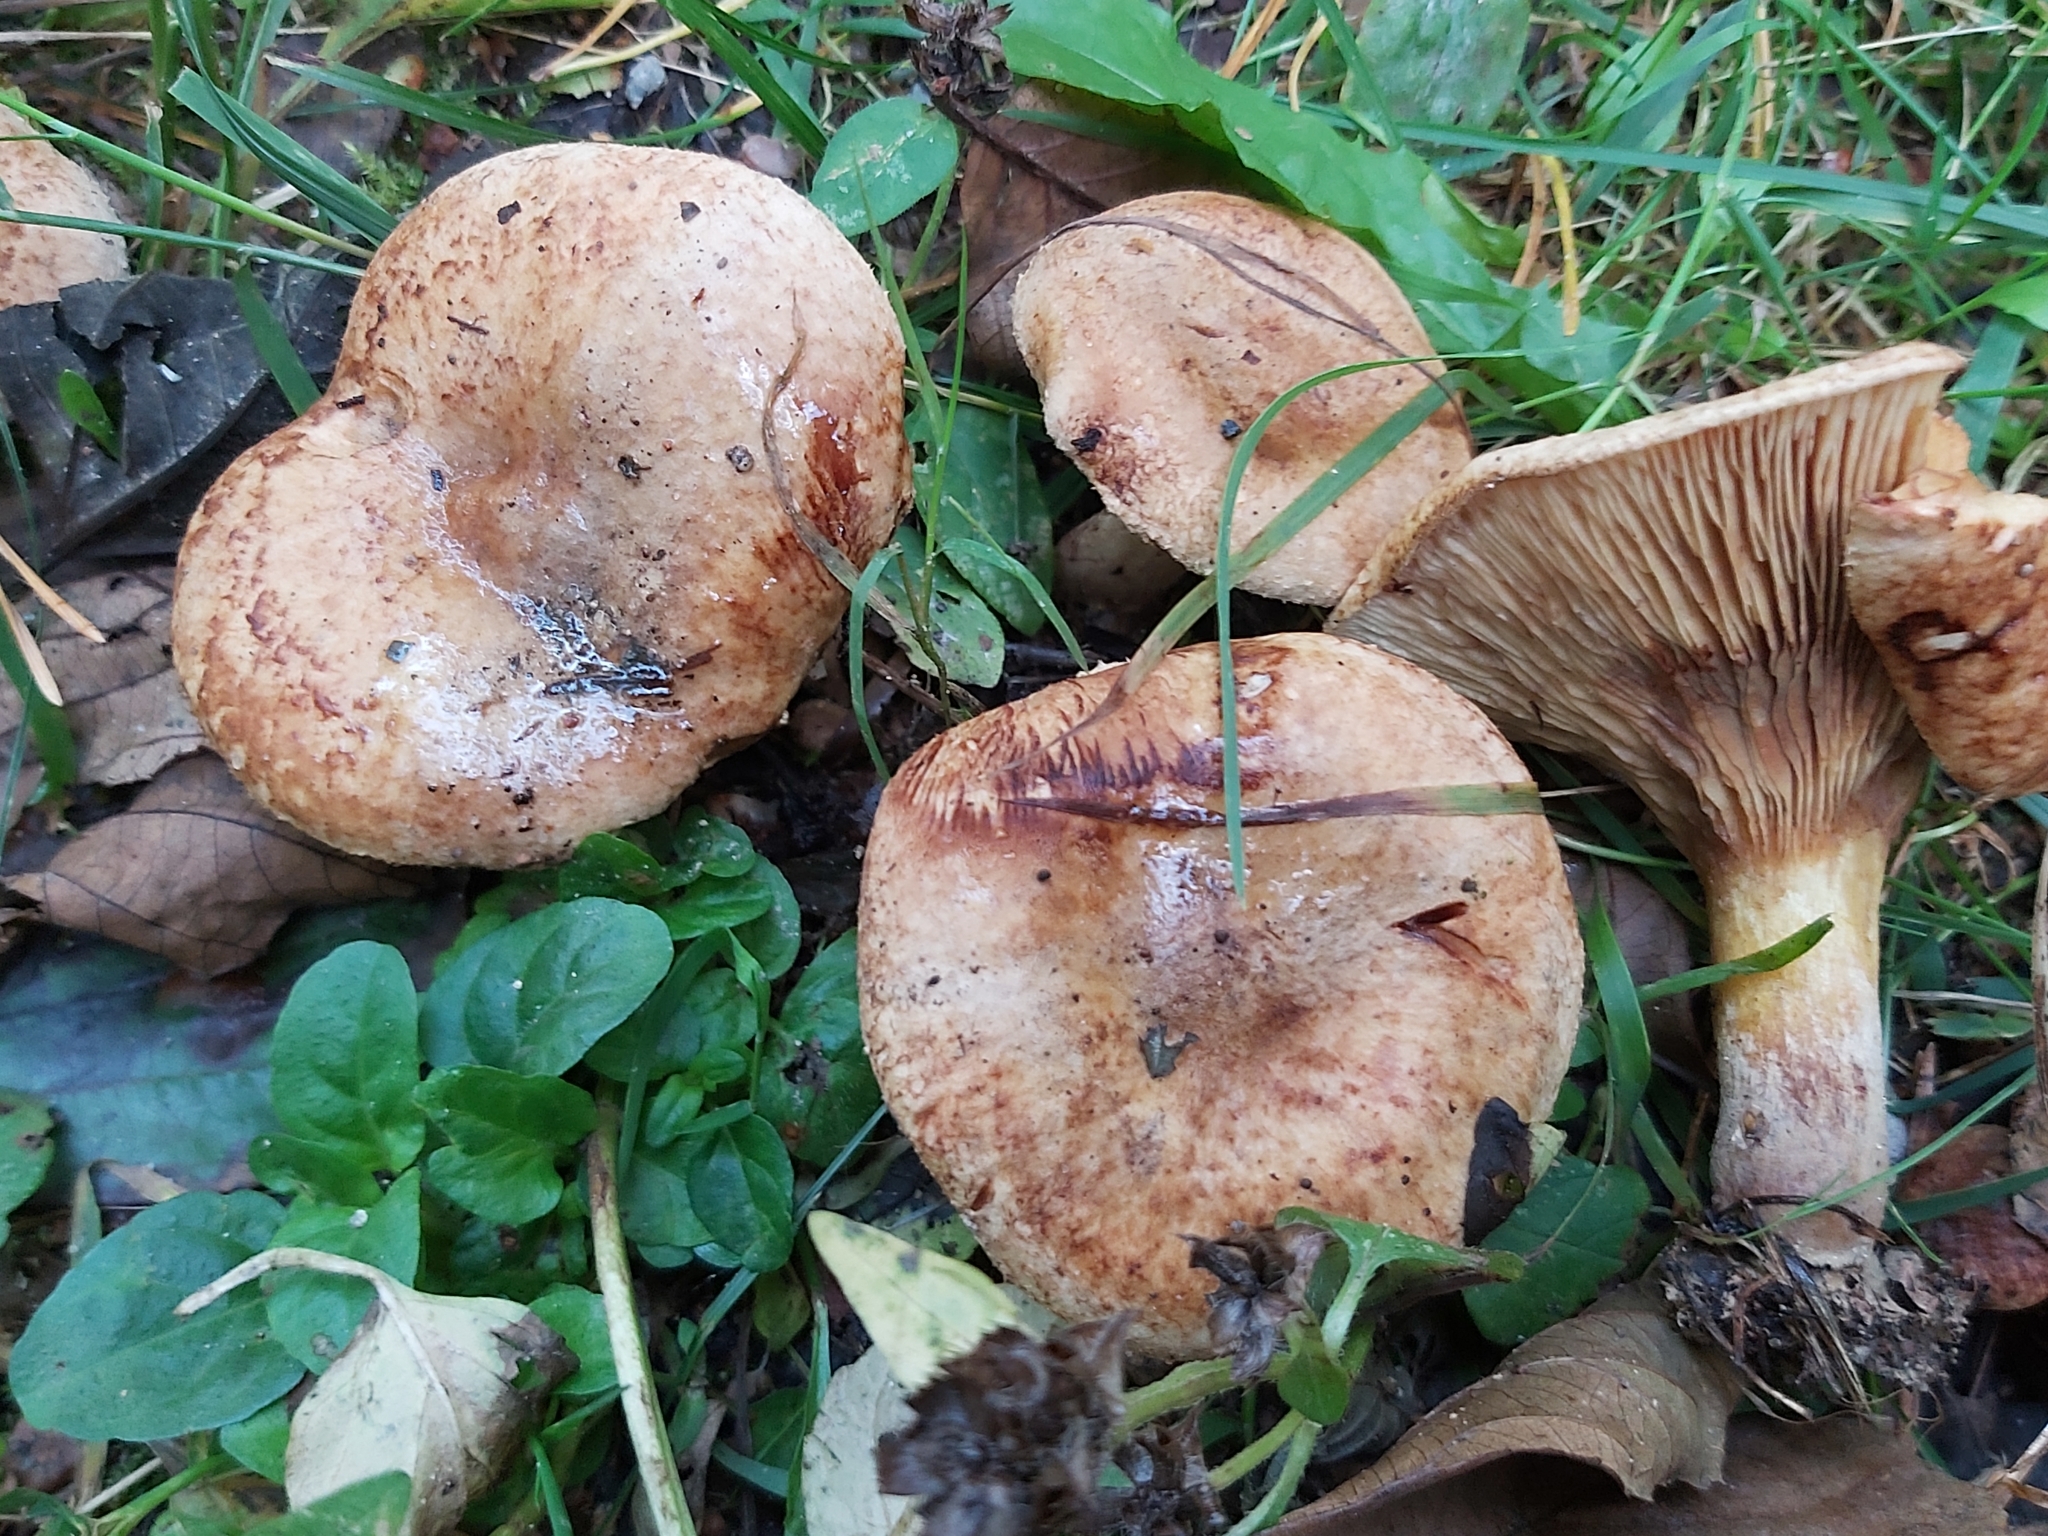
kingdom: Fungi
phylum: Basidiomycota
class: Agaricomycetes
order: Boletales
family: Paxillaceae
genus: Paxillus
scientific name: Paxillus involutus
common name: Brown roll rim
